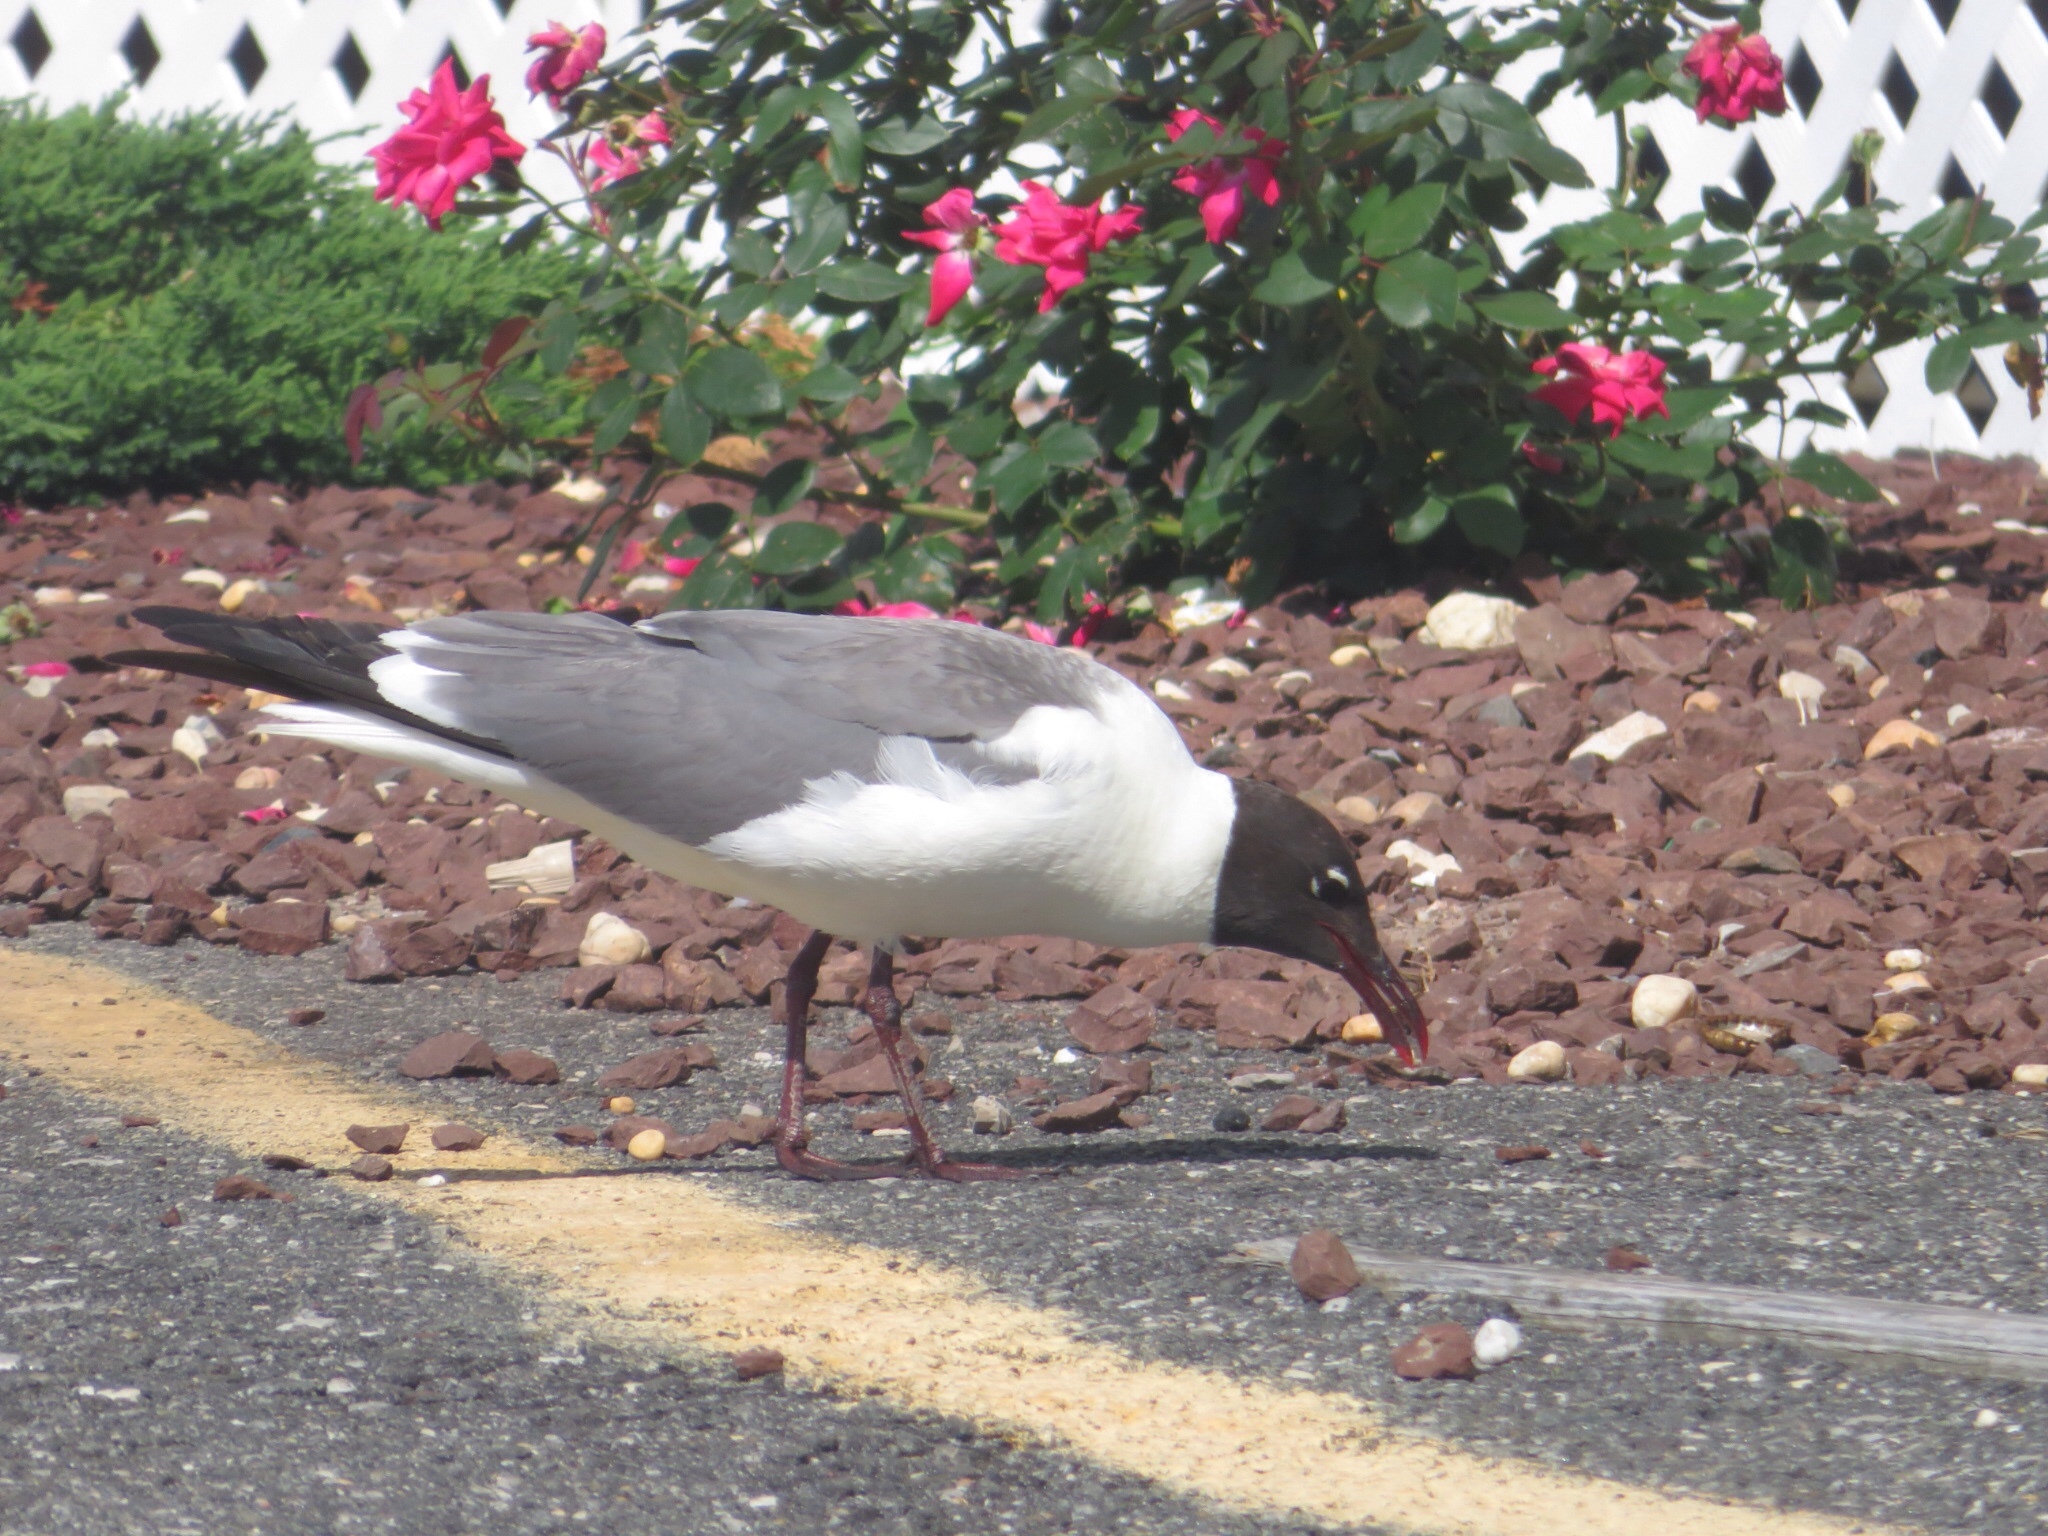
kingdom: Animalia
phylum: Chordata
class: Aves
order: Charadriiformes
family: Laridae
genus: Leucophaeus
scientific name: Leucophaeus atricilla
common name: Laughing gull
